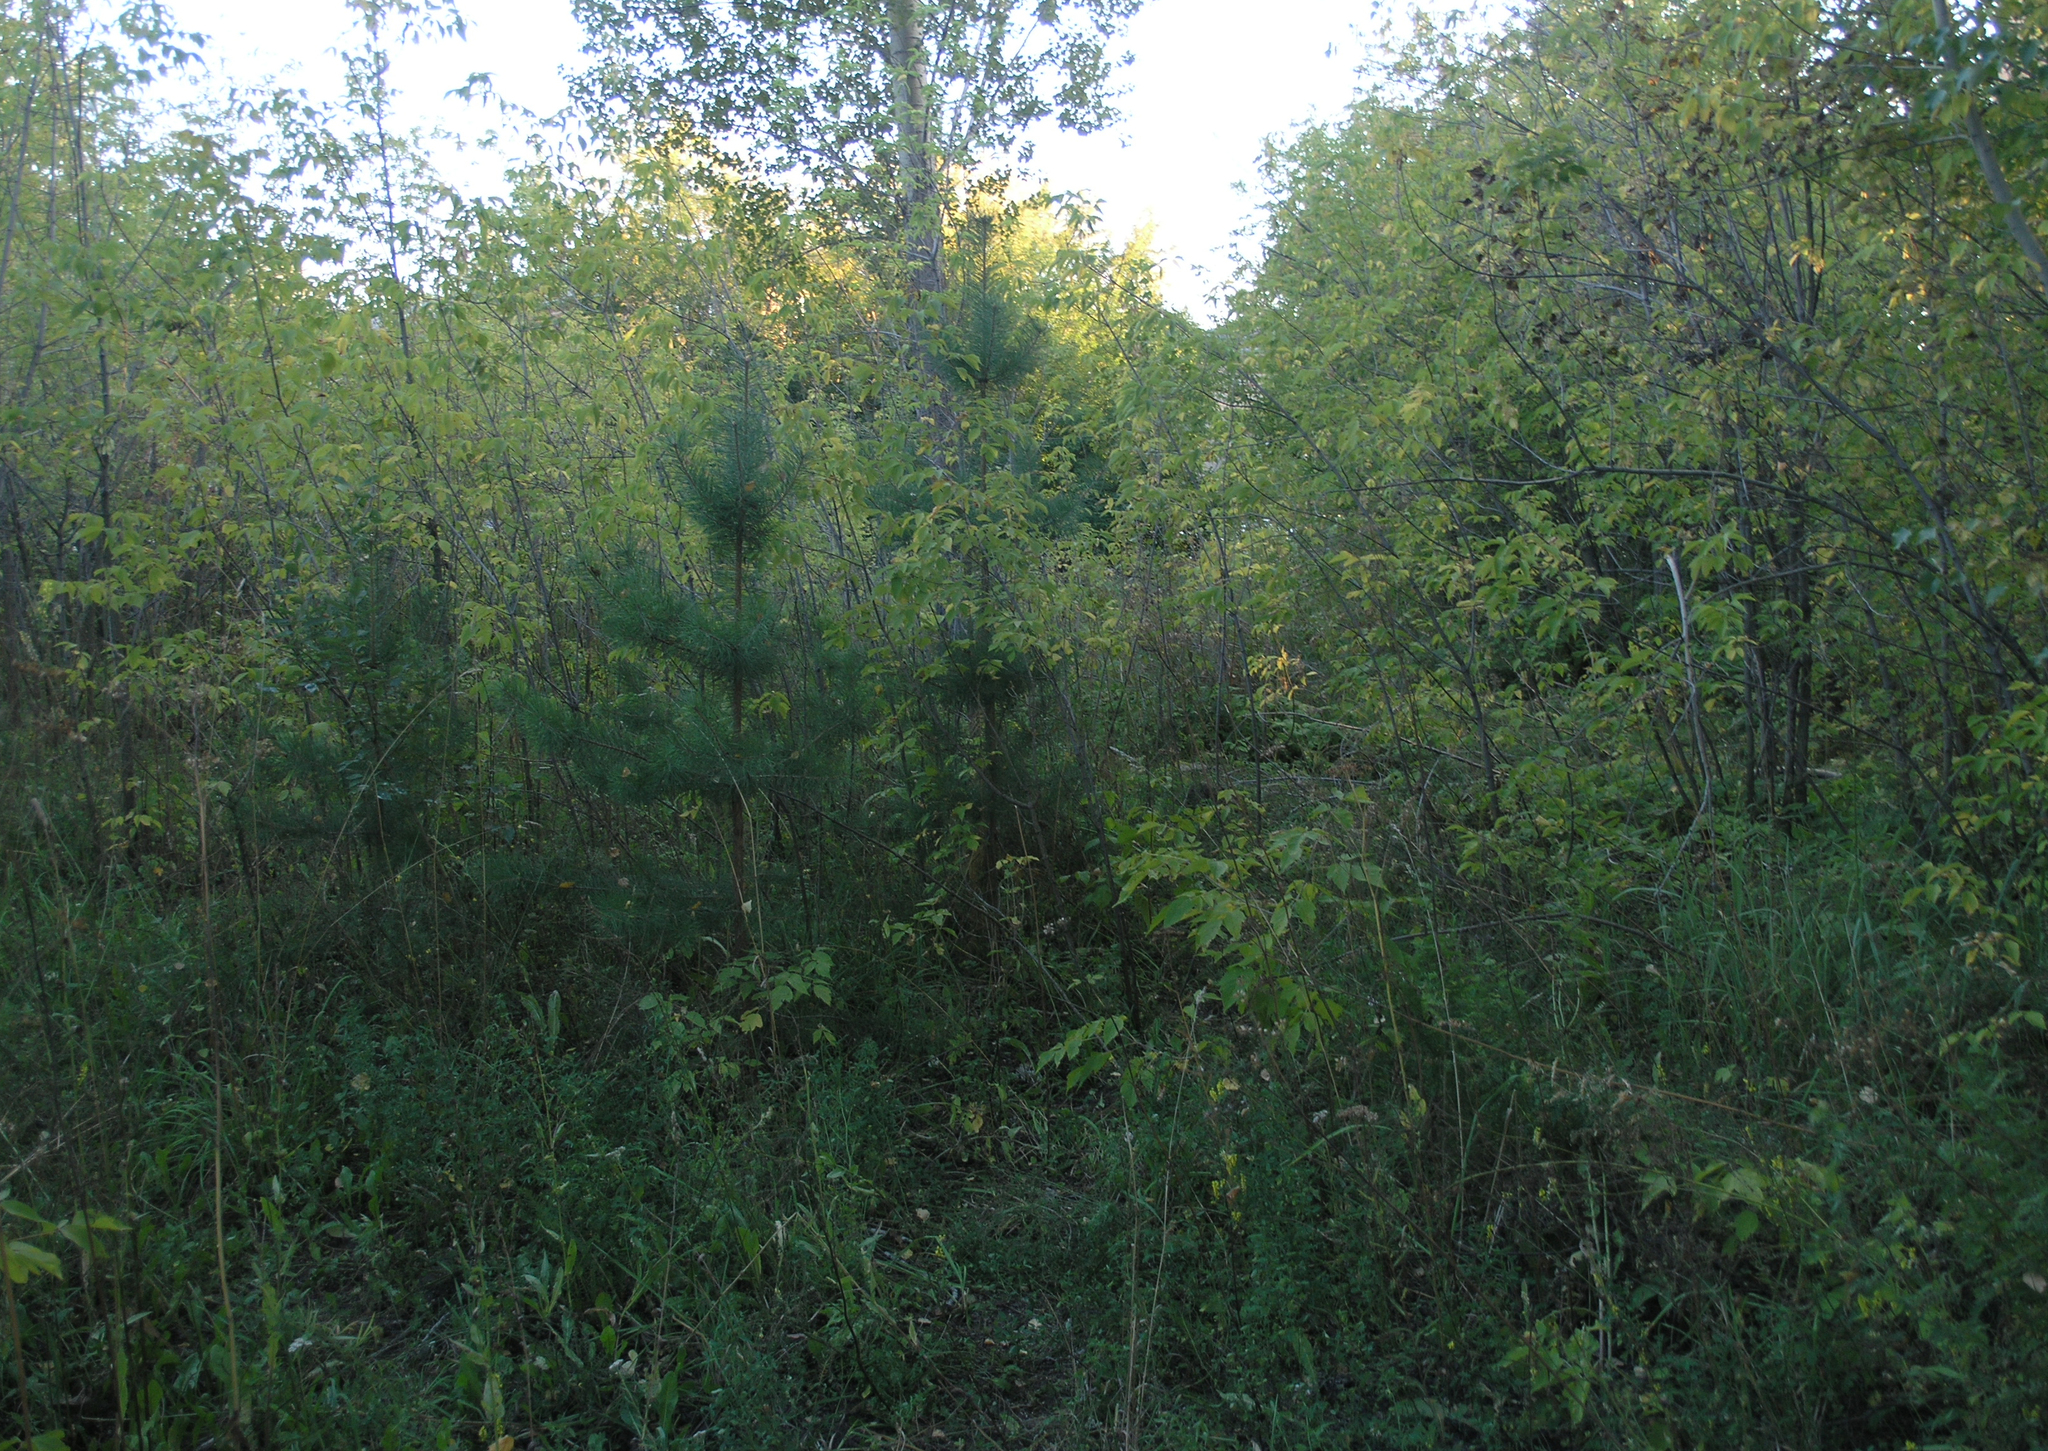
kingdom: Plantae
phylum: Tracheophyta
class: Pinopsida
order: Pinales
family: Pinaceae
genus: Pinus
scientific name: Pinus sylvestris
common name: Scots pine
